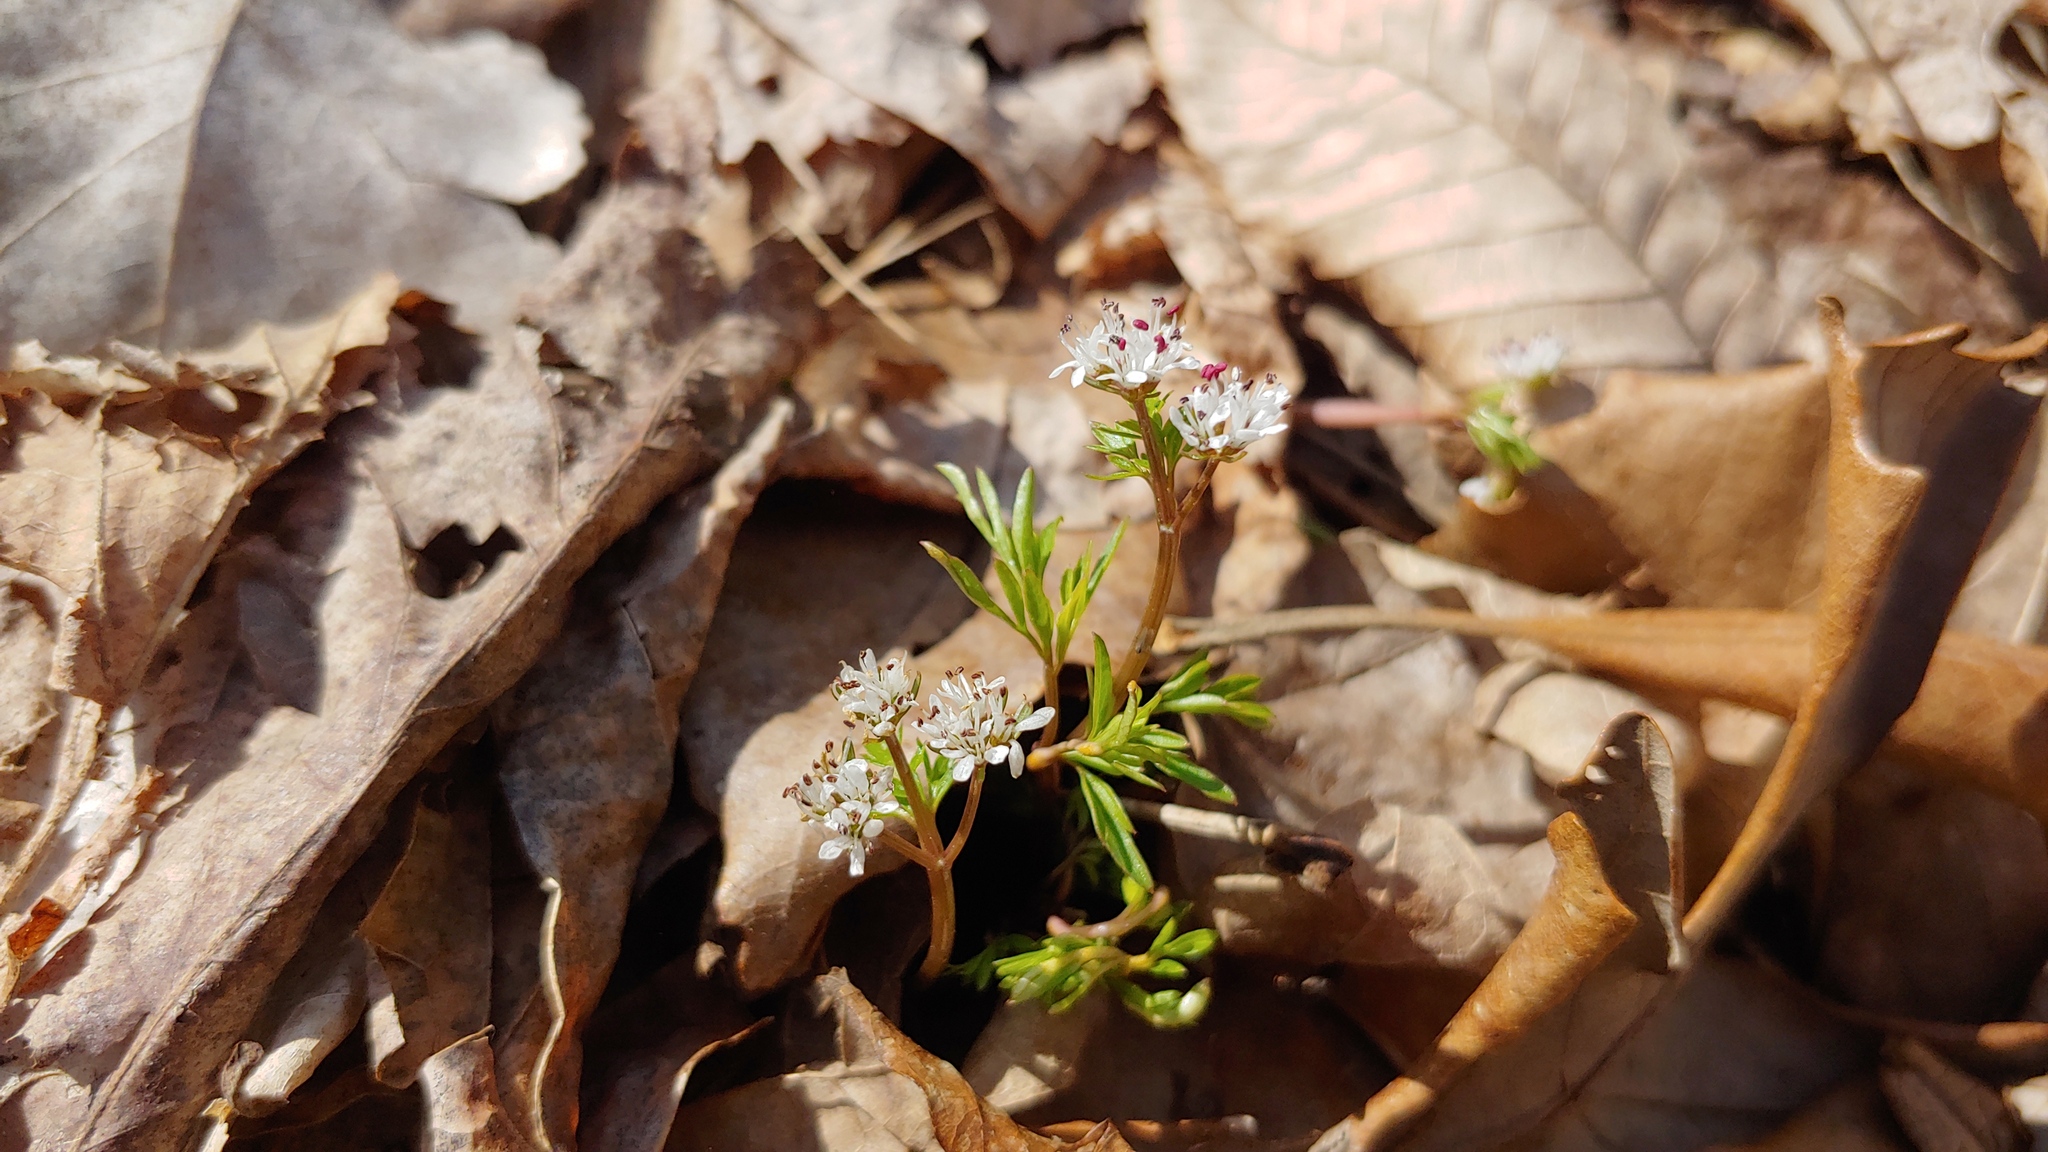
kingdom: Plantae
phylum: Tracheophyta
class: Magnoliopsida
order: Apiales
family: Apiaceae
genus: Erigenia
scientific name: Erigenia bulbosa
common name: Pepper-and-salt
